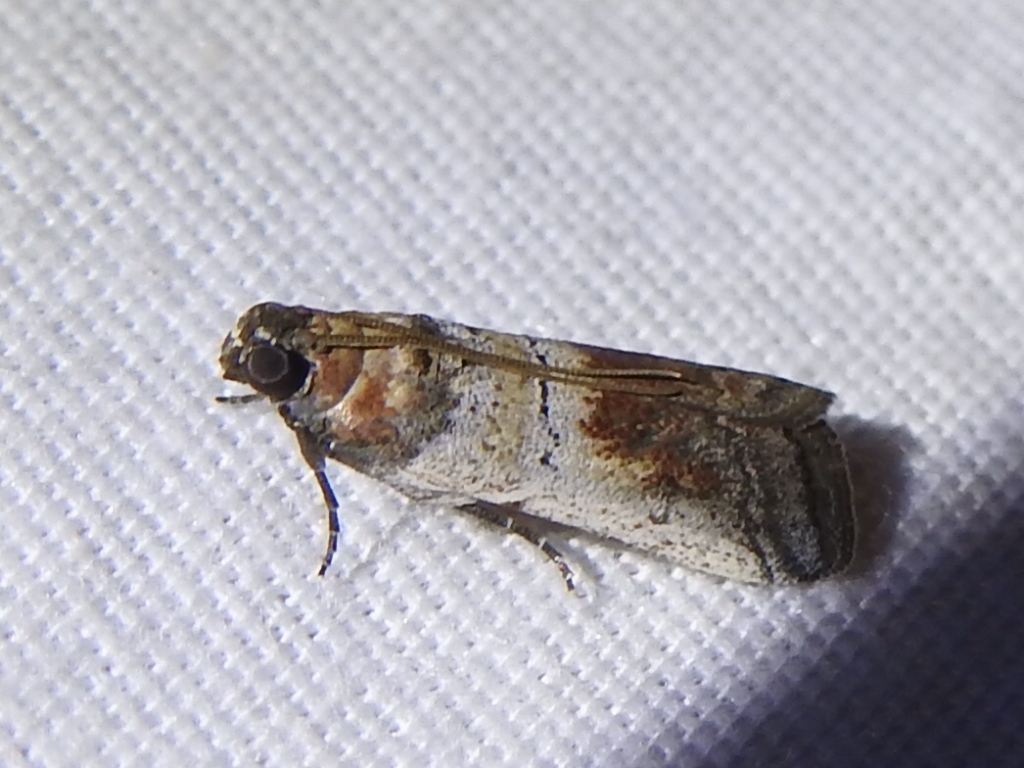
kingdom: Animalia
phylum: Arthropoda
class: Insecta
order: Lepidoptera
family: Pyralidae
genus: Chararica
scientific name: Chararica hystriculella
